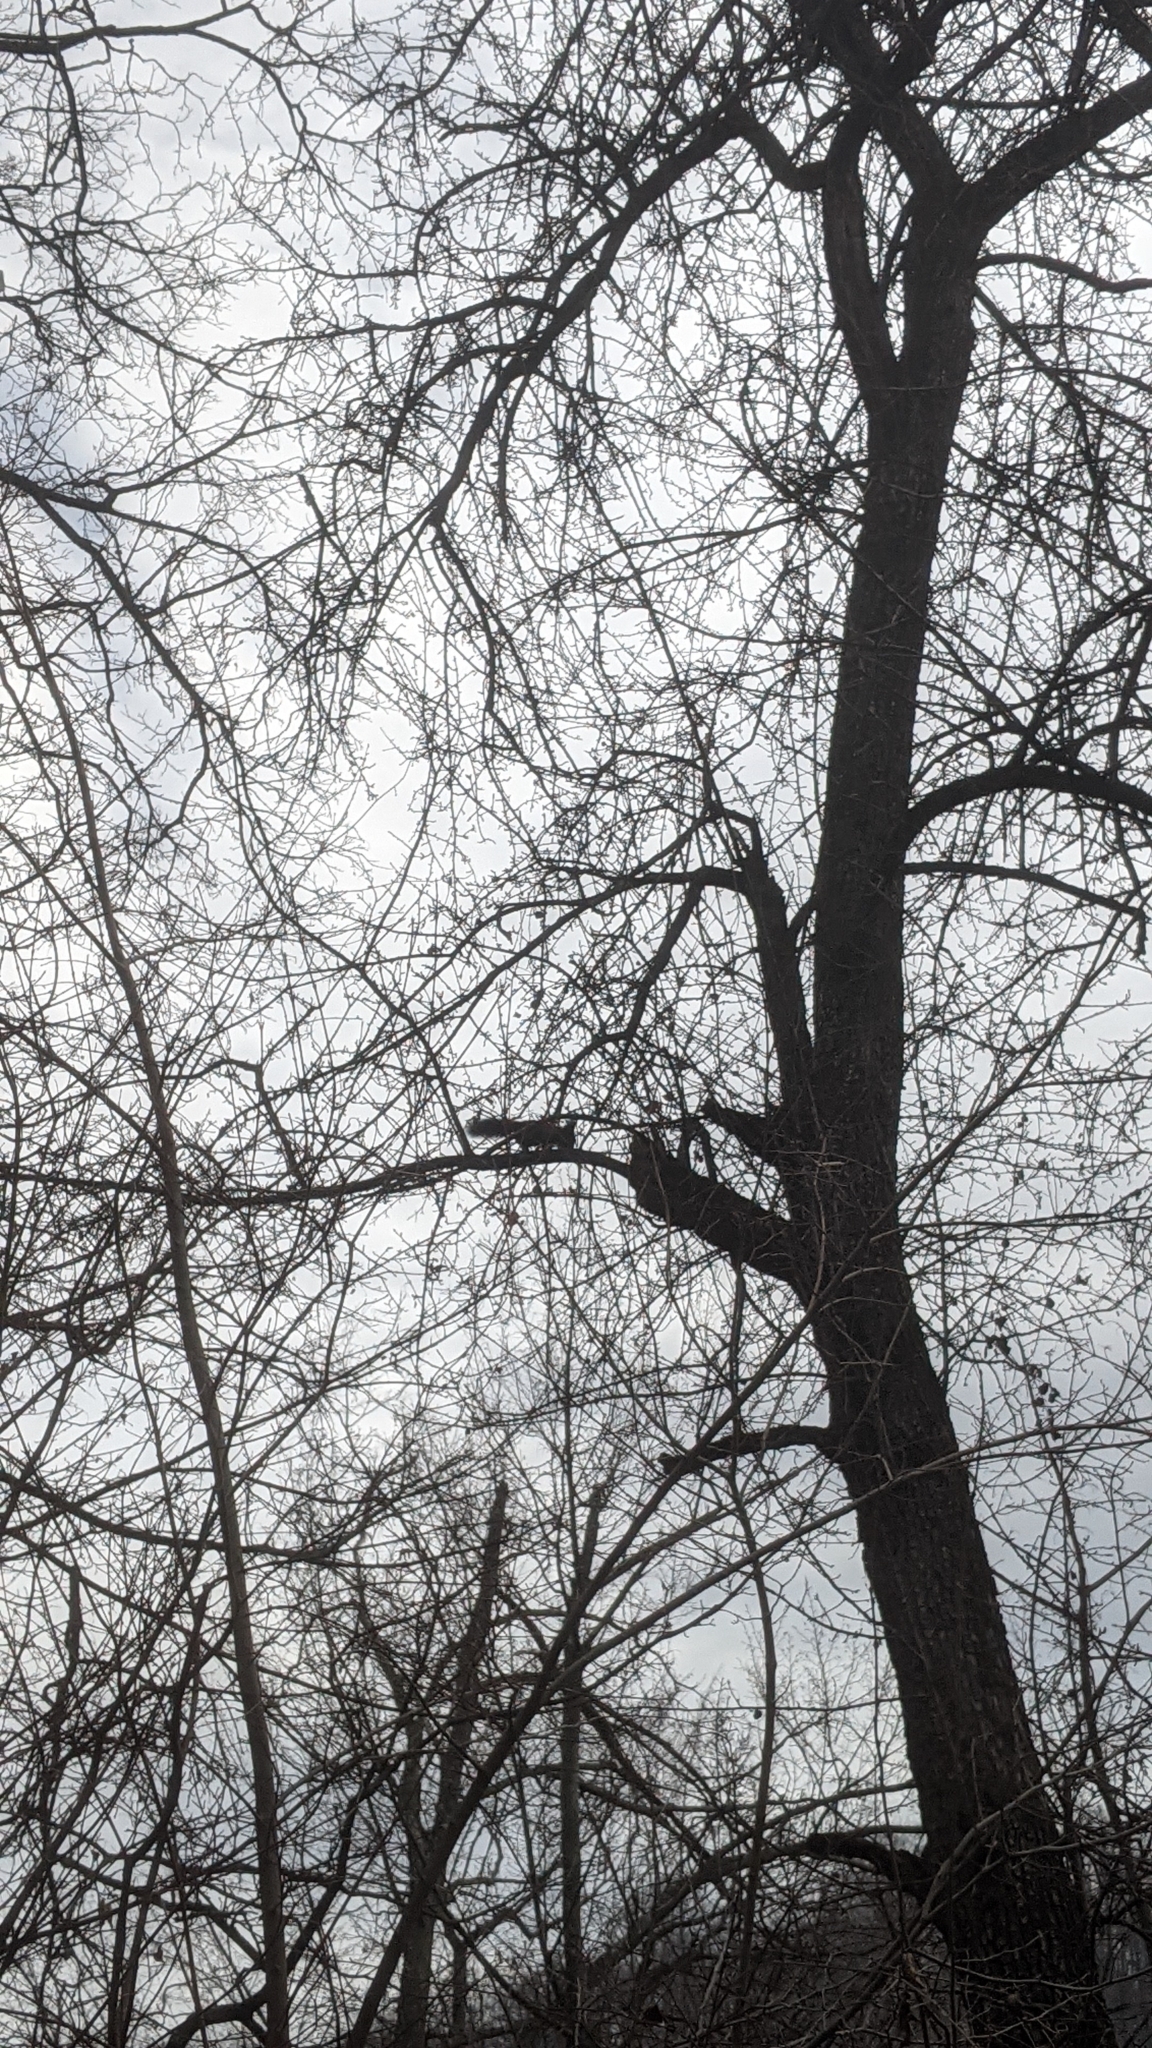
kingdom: Animalia
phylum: Chordata
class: Mammalia
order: Rodentia
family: Sciuridae
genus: Sciurus
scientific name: Sciurus vulgaris
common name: Eurasian red squirrel
